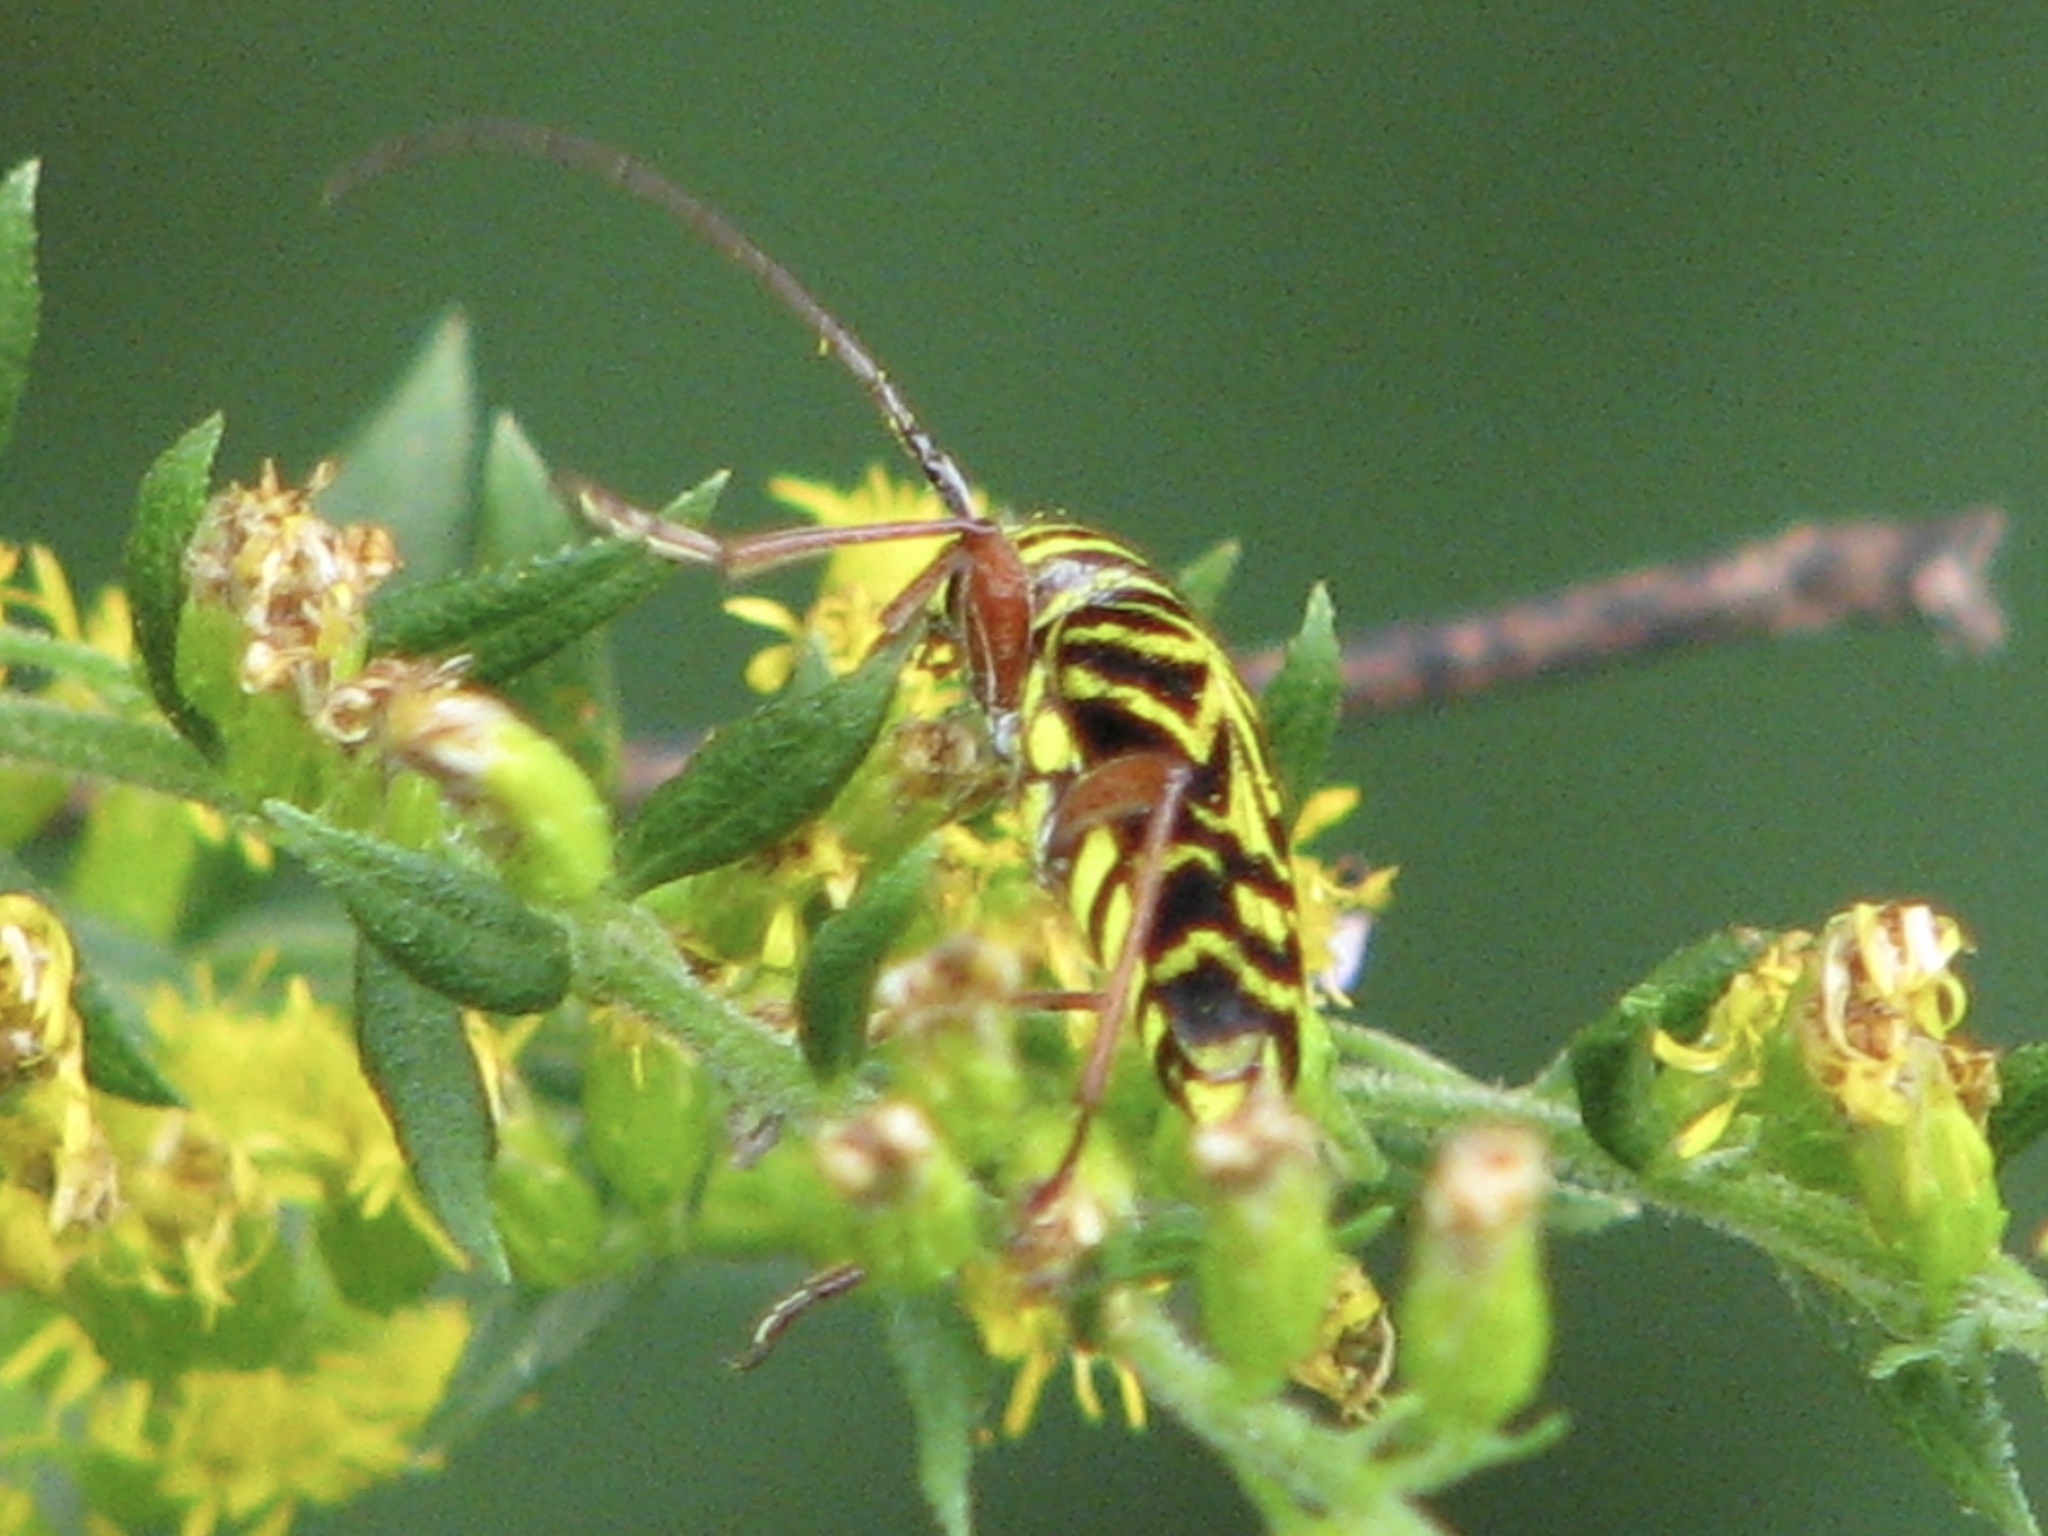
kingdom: Animalia
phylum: Arthropoda
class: Insecta
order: Coleoptera
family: Cerambycidae
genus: Megacyllene
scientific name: Megacyllene robiniae
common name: Locust borer
